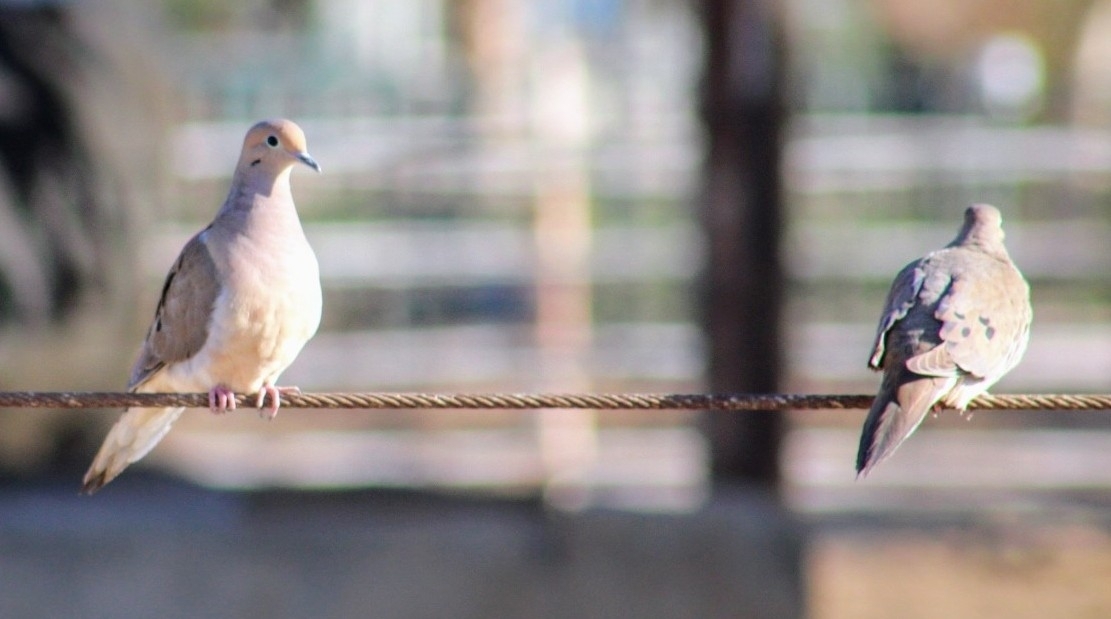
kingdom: Animalia
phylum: Chordata
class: Aves
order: Columbiformes
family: Columbidae
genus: Zenaida
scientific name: Zenaida macroura
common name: Mourning dove
